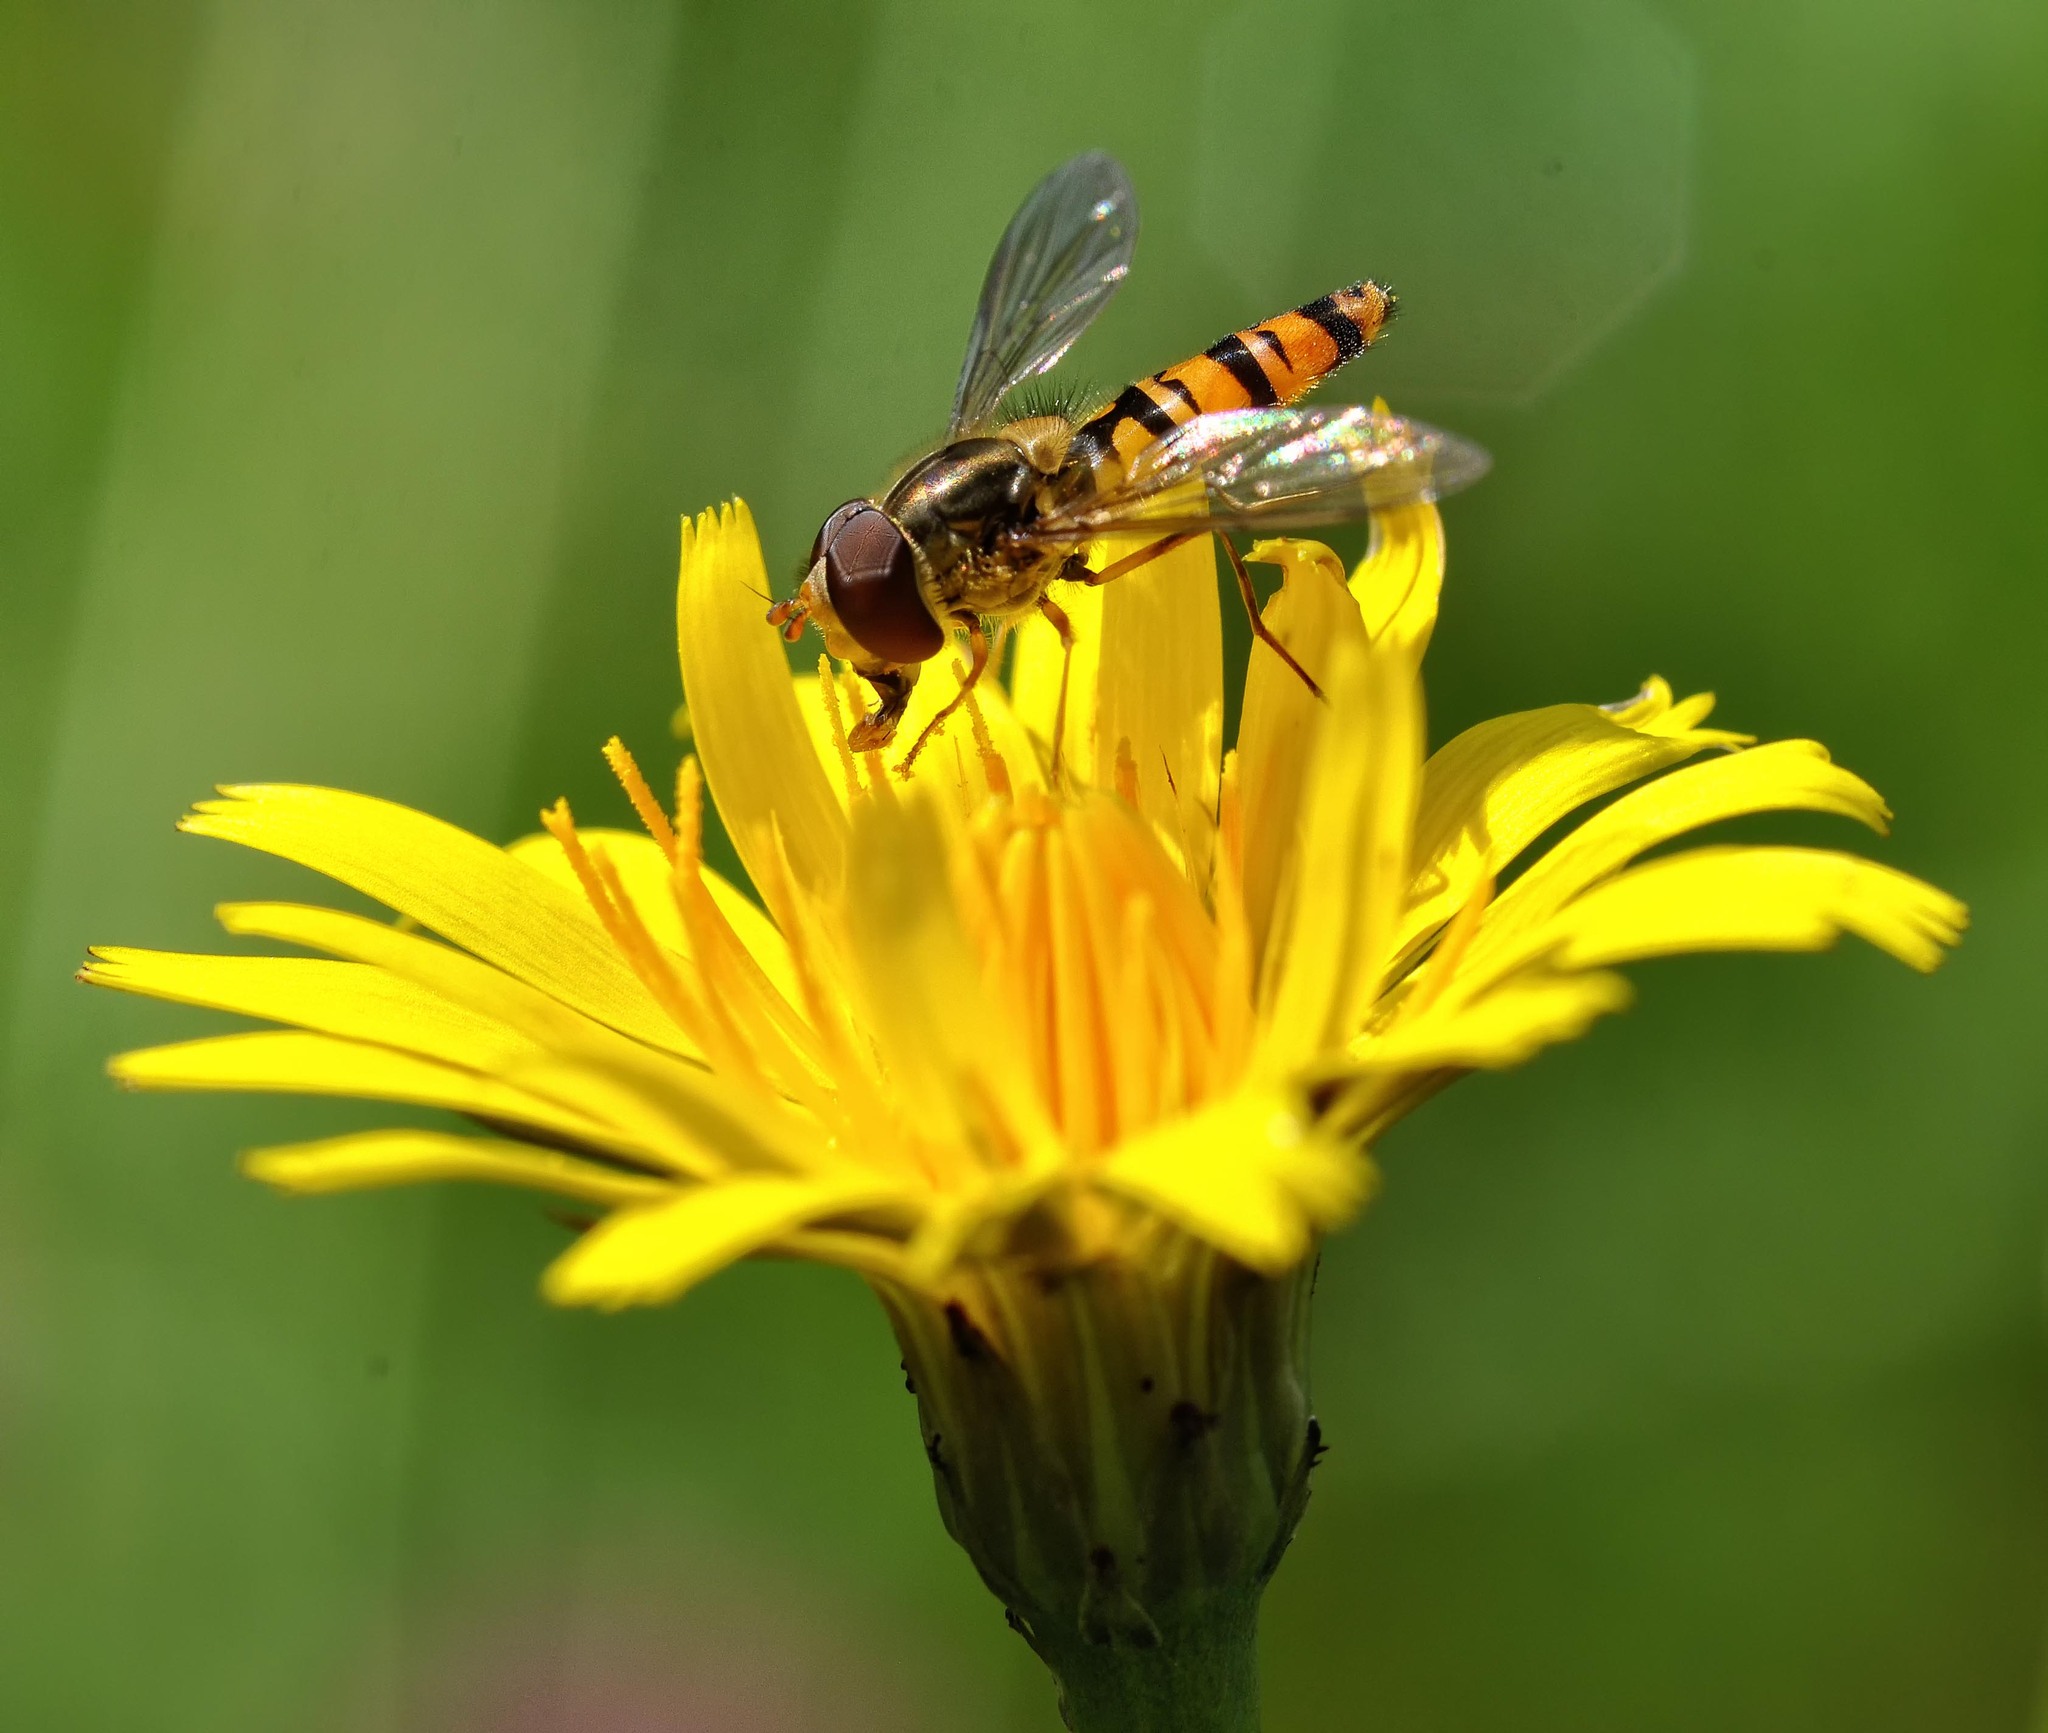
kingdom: Animalia
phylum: Arthropoda
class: Insecta
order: Diptera
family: Syrphidae
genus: Episyrphus
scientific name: Episyrphus balteatus
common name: Marmalade hoverfly
